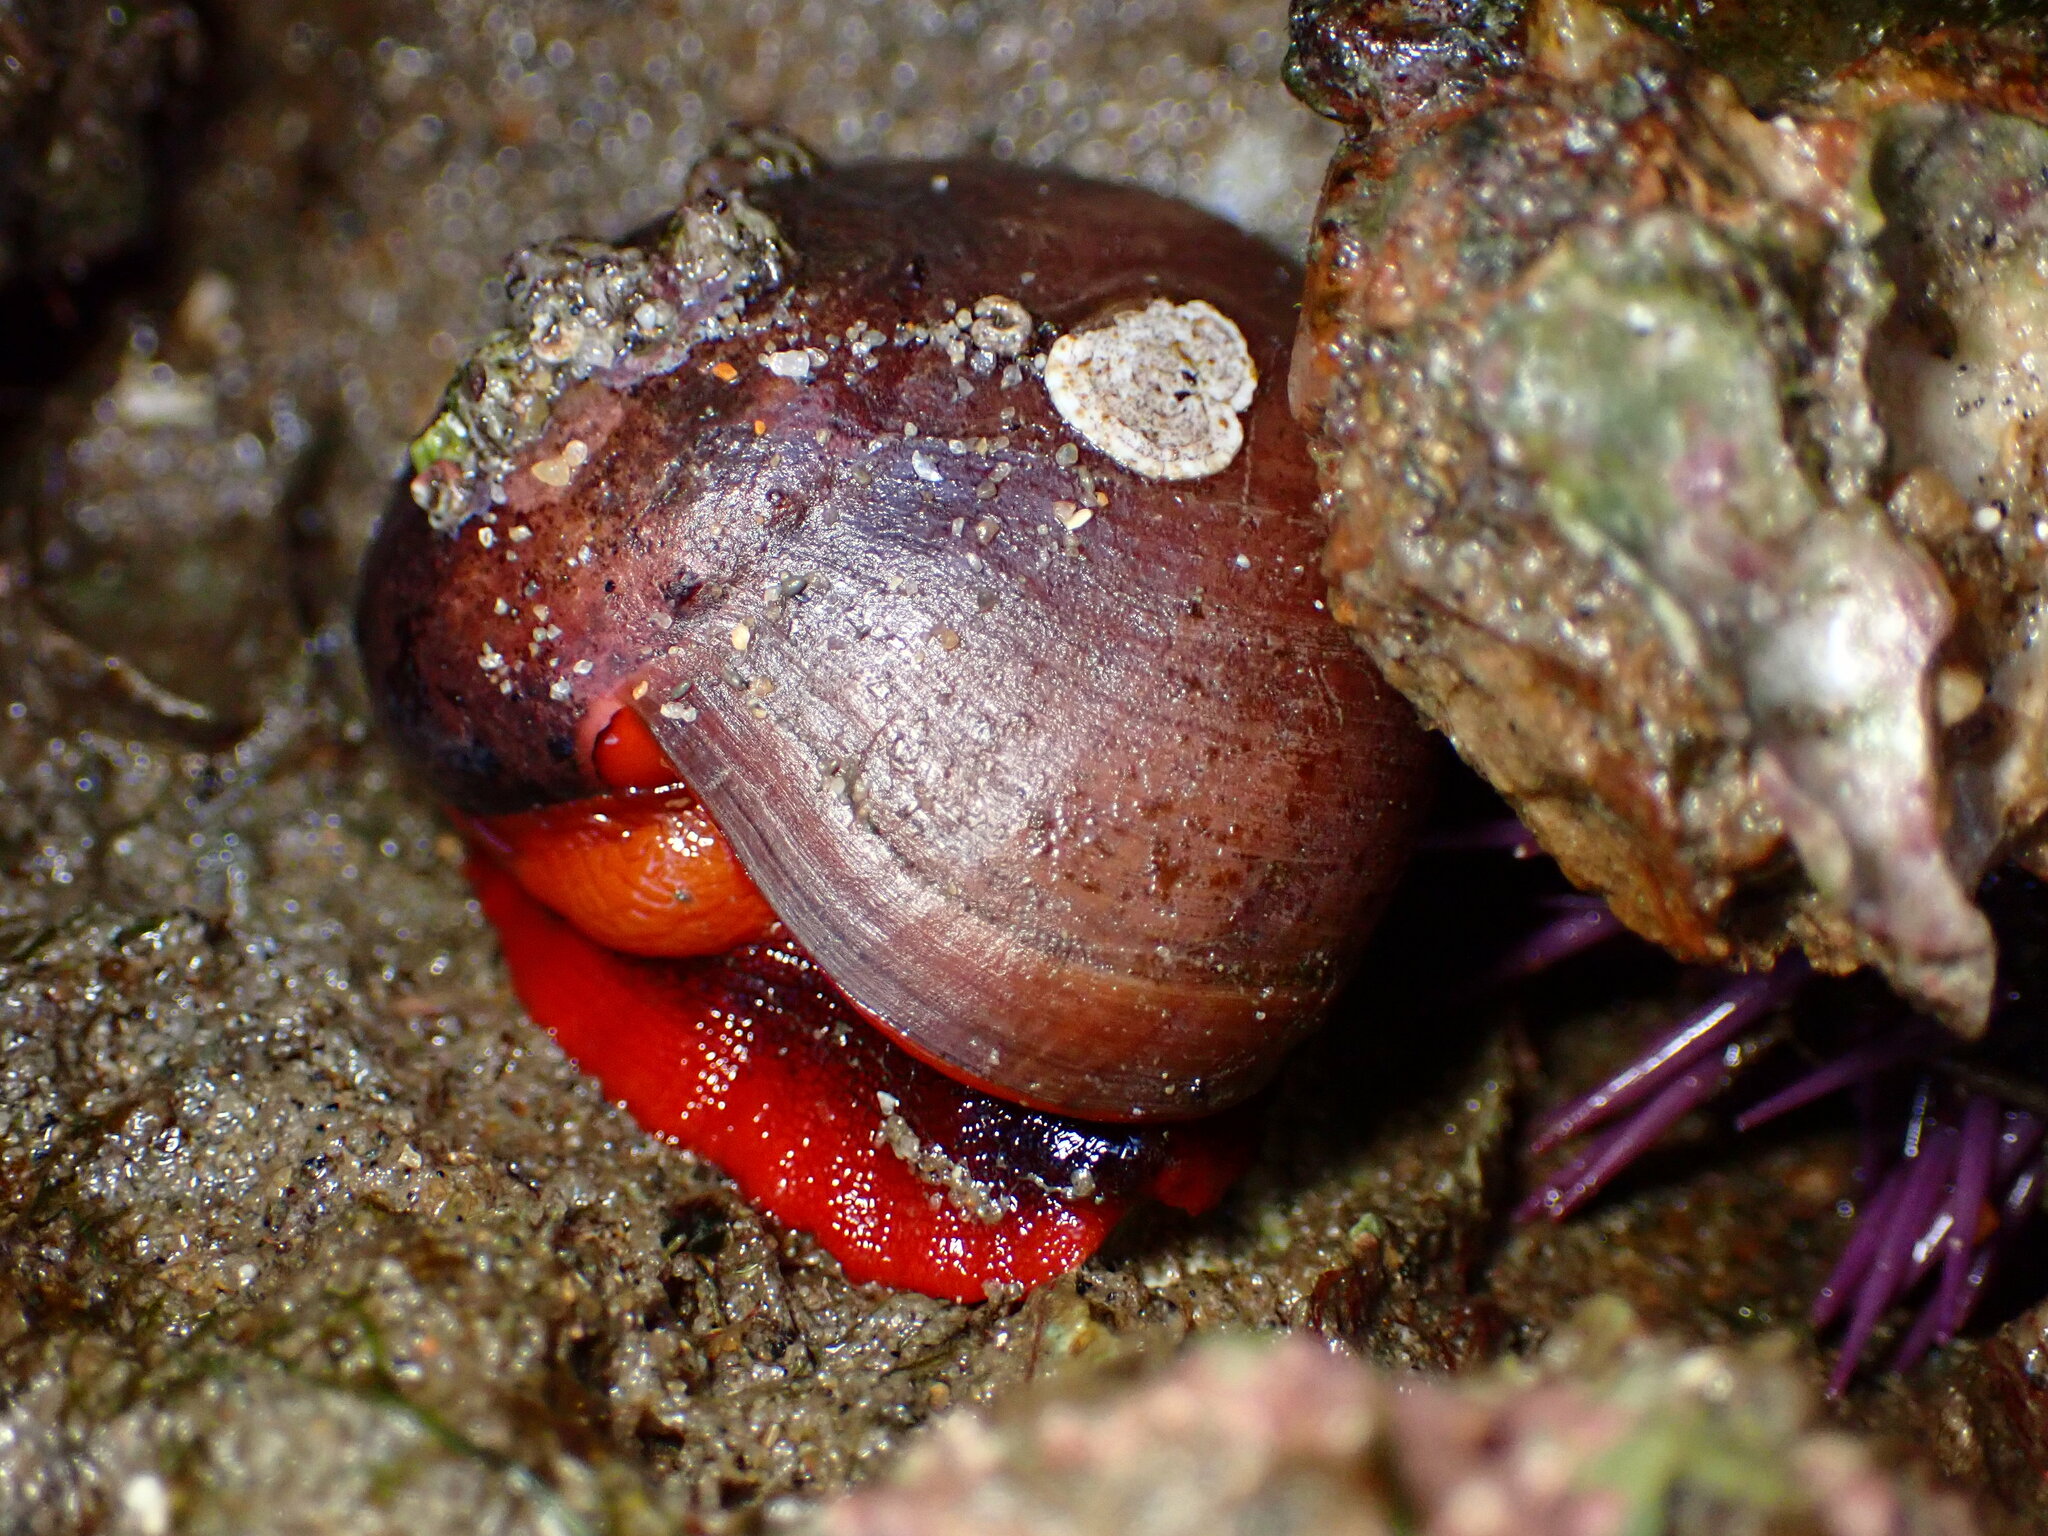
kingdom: Animalia
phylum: Mollusca
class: Gastropoda
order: Trochida
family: Tegulidae
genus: Norrisia
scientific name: Norrisia norrisii
